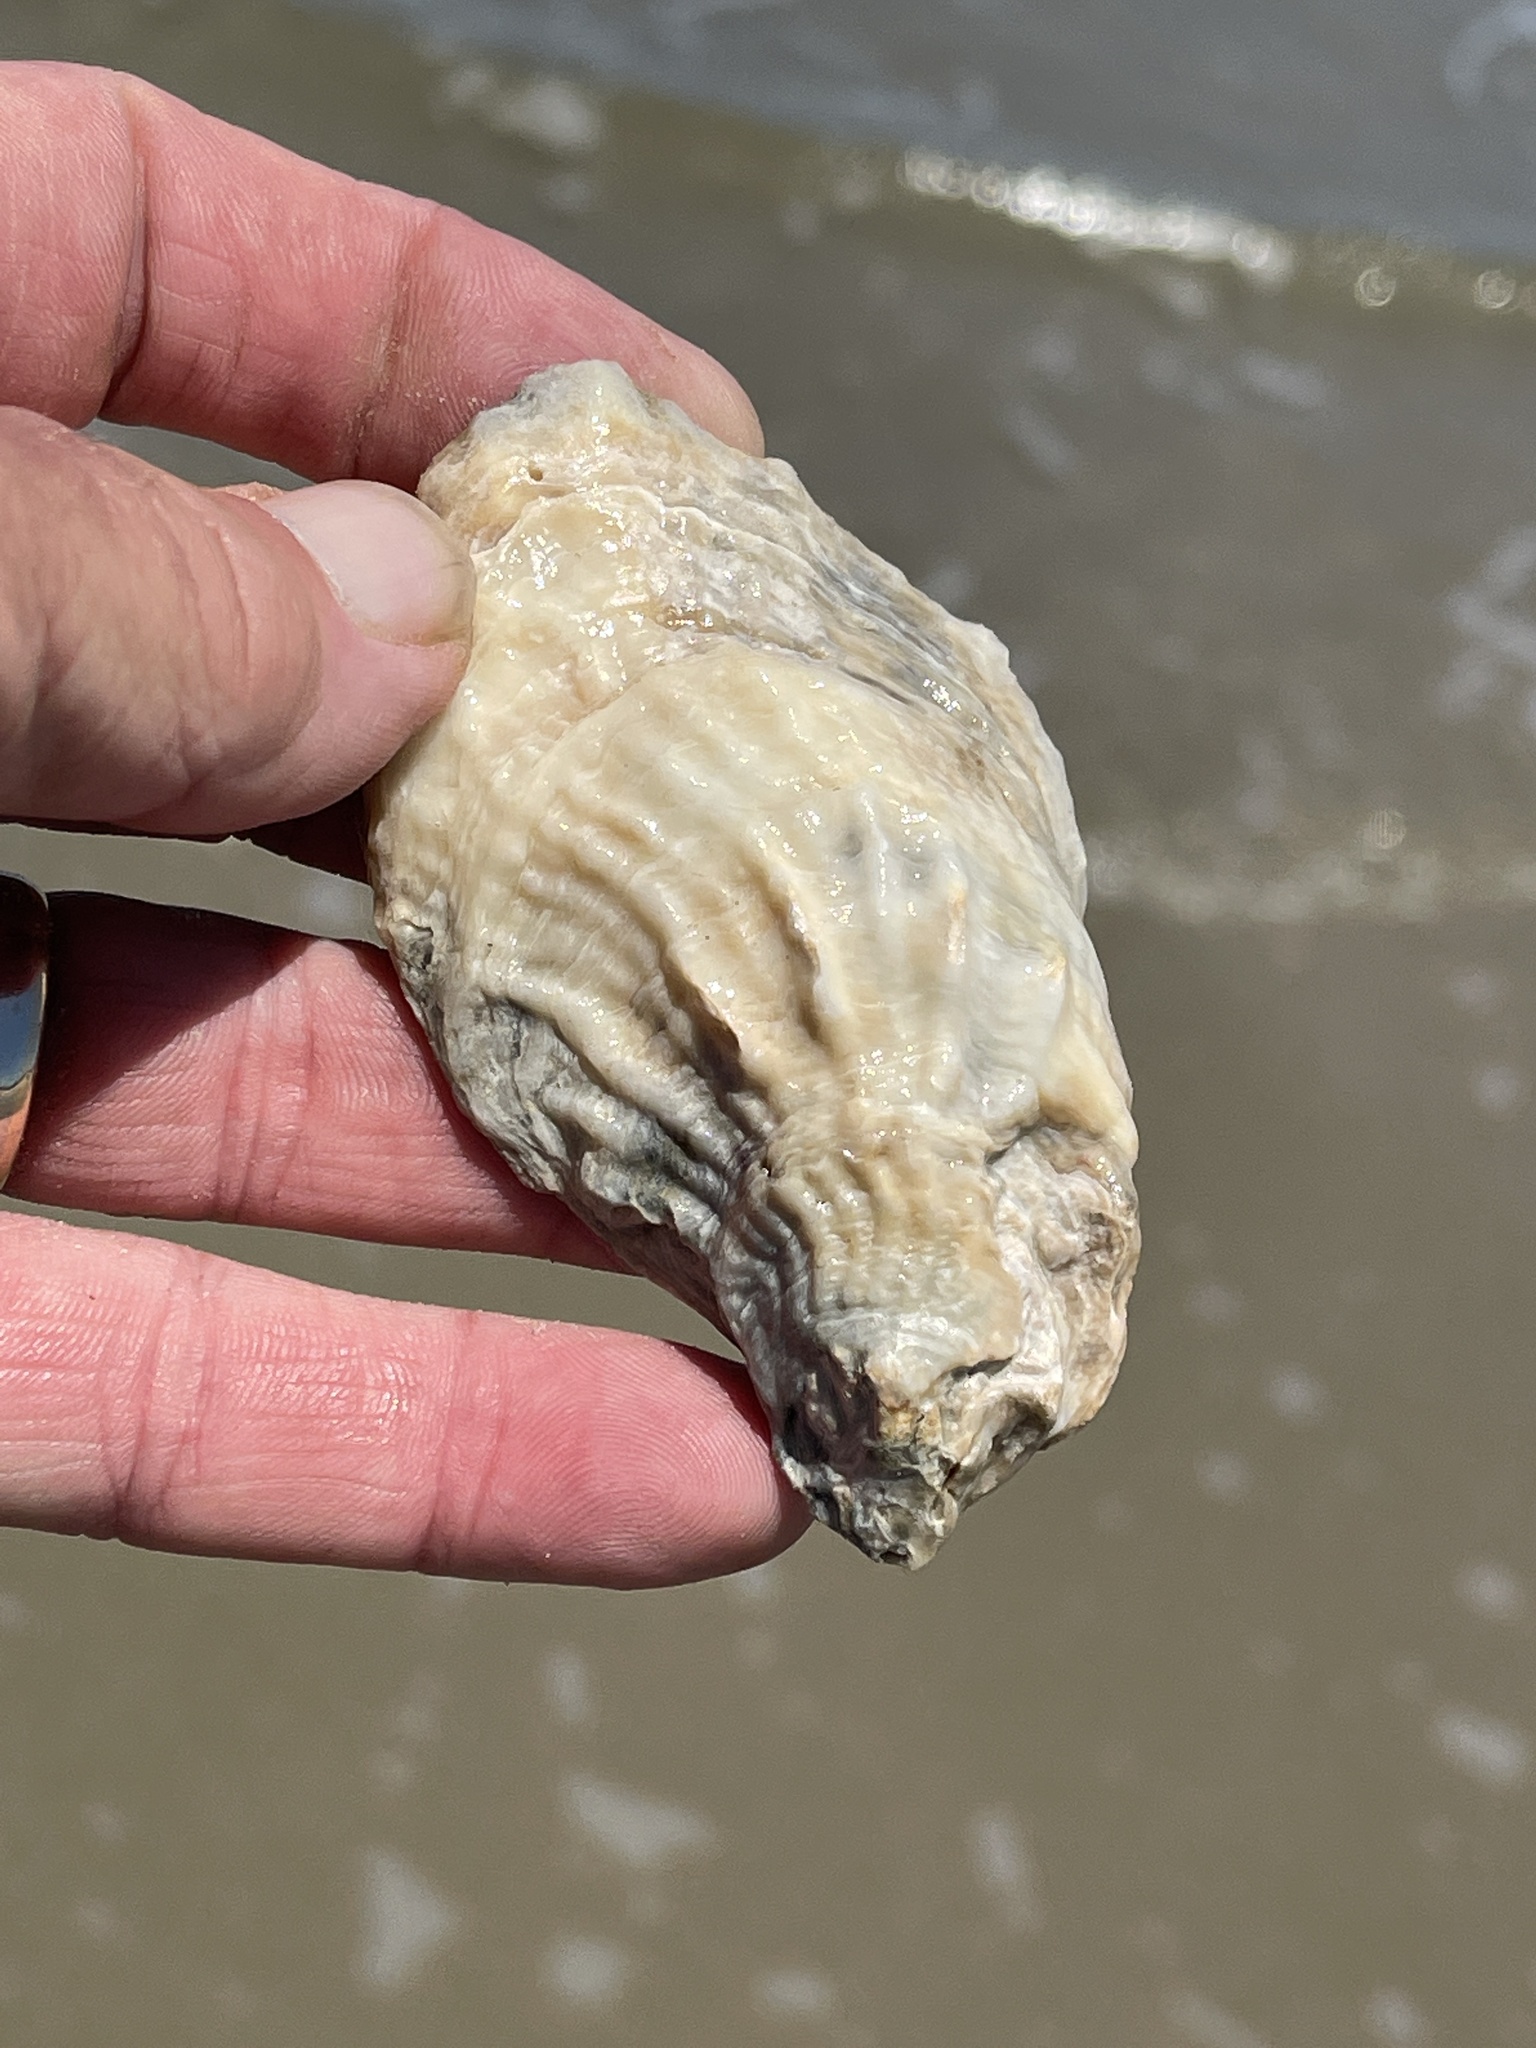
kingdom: Animalia
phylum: Mollusca
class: Bivalvia
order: Ostreida
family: Ostreidae
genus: Crassostrea
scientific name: Crassostrea virginica
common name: American oyster
